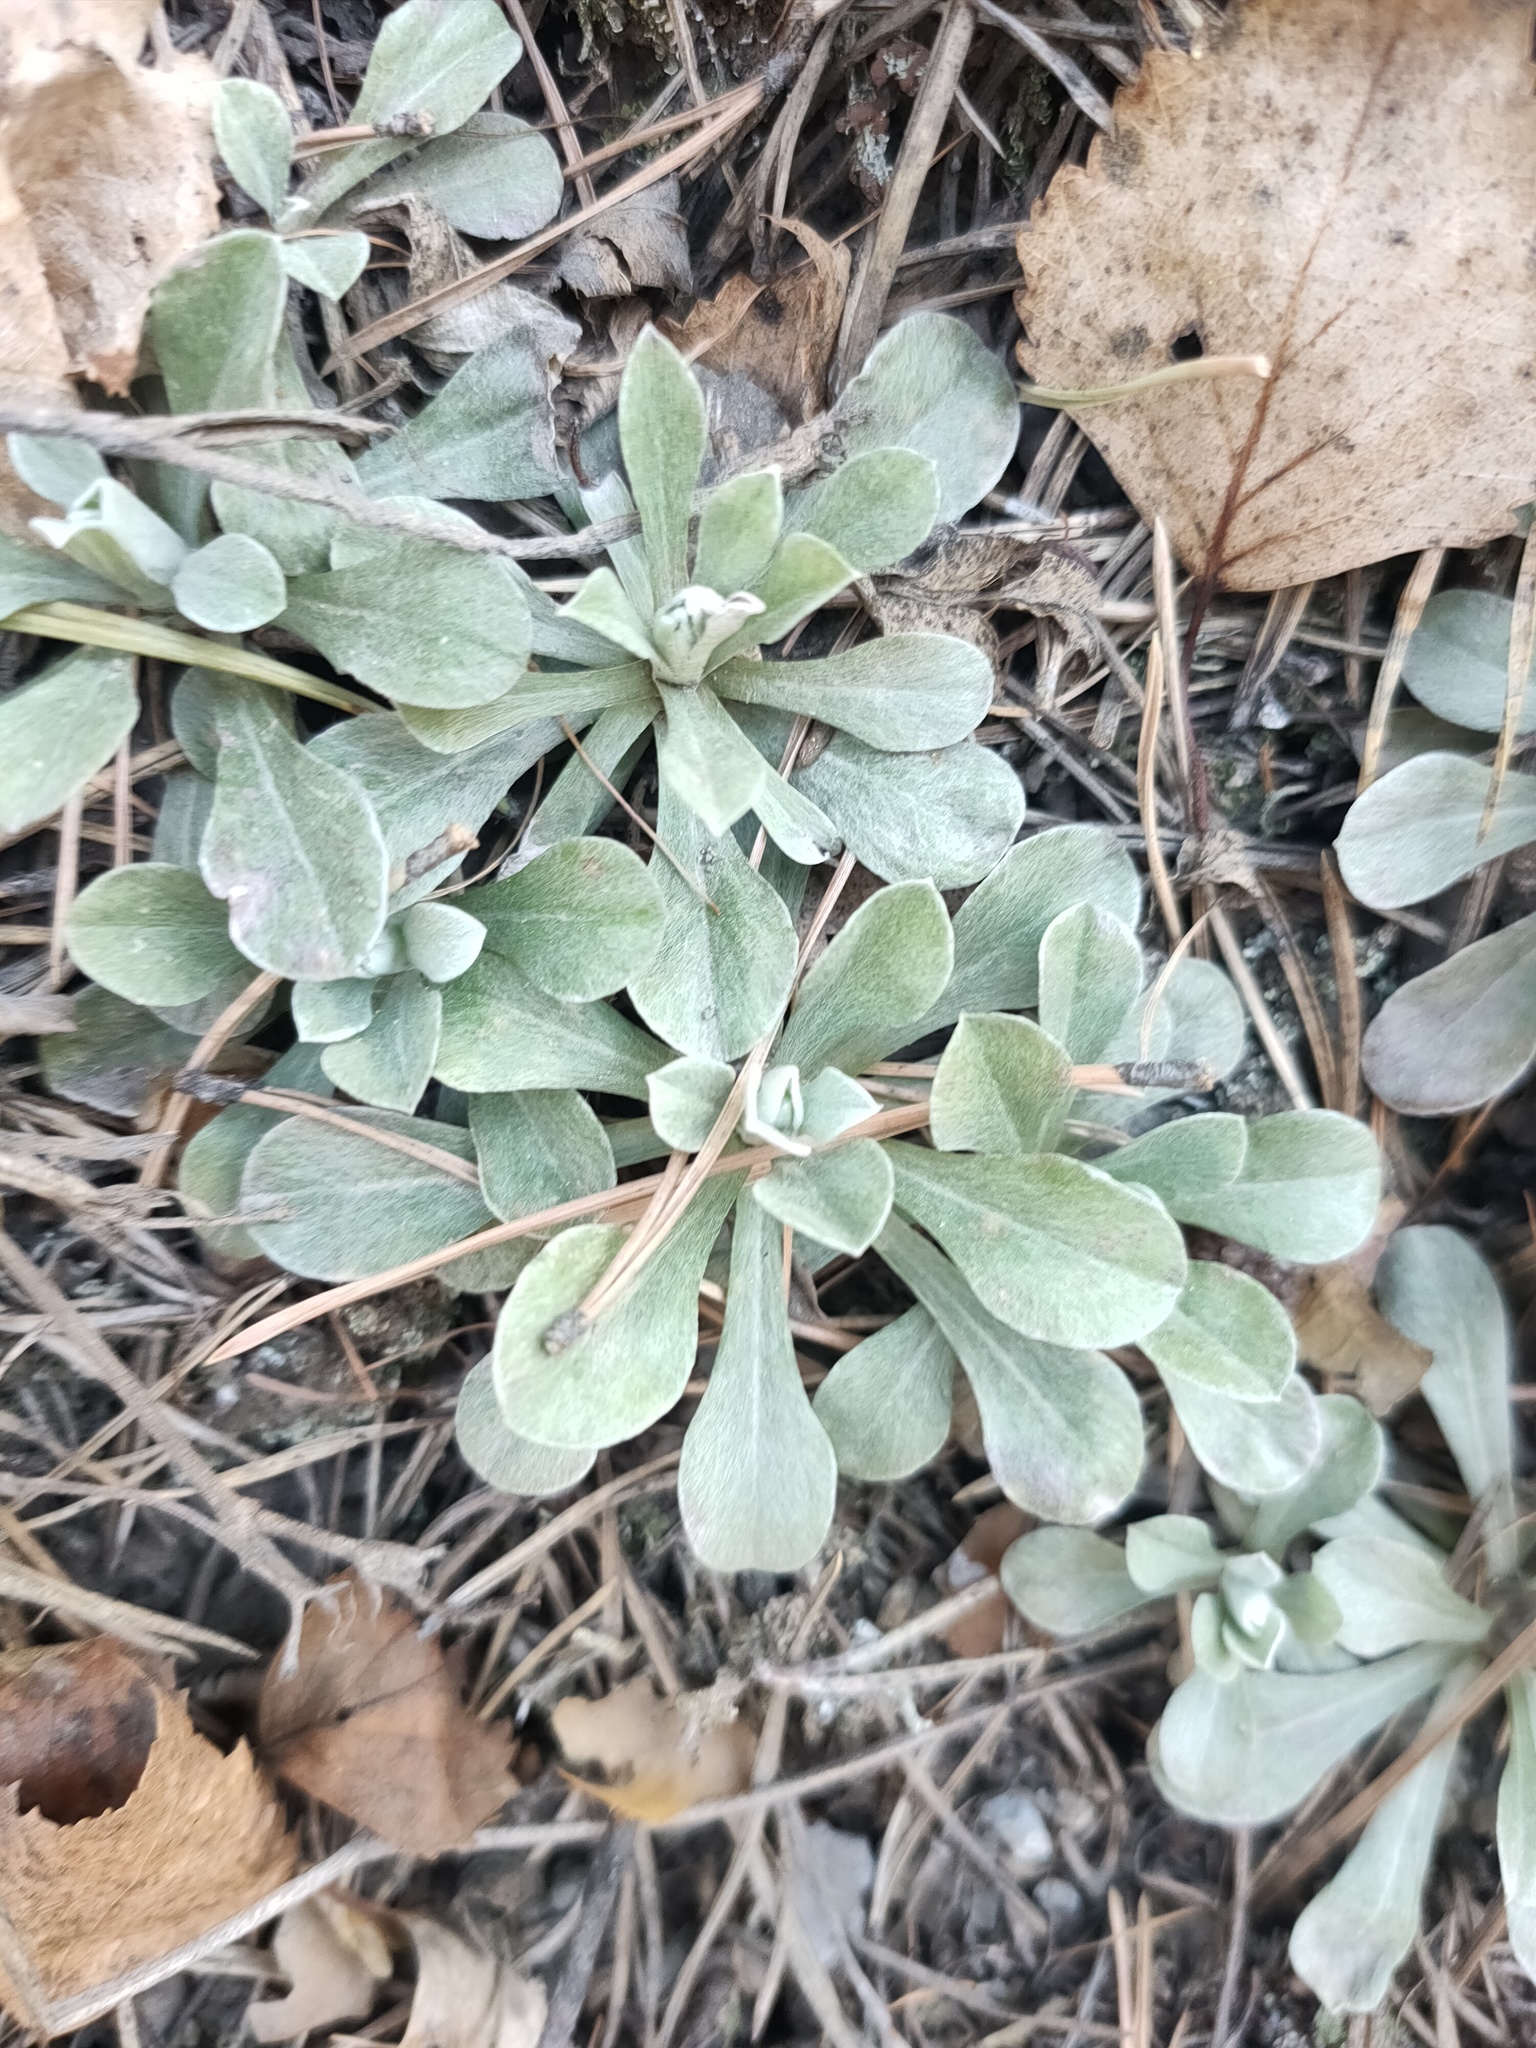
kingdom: Plantae
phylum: Tracheophyta
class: Magnoliopsida
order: Asterales
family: Asteraceae
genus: Antennaria
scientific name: Antennaria dioica
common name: Mountain everlasting
